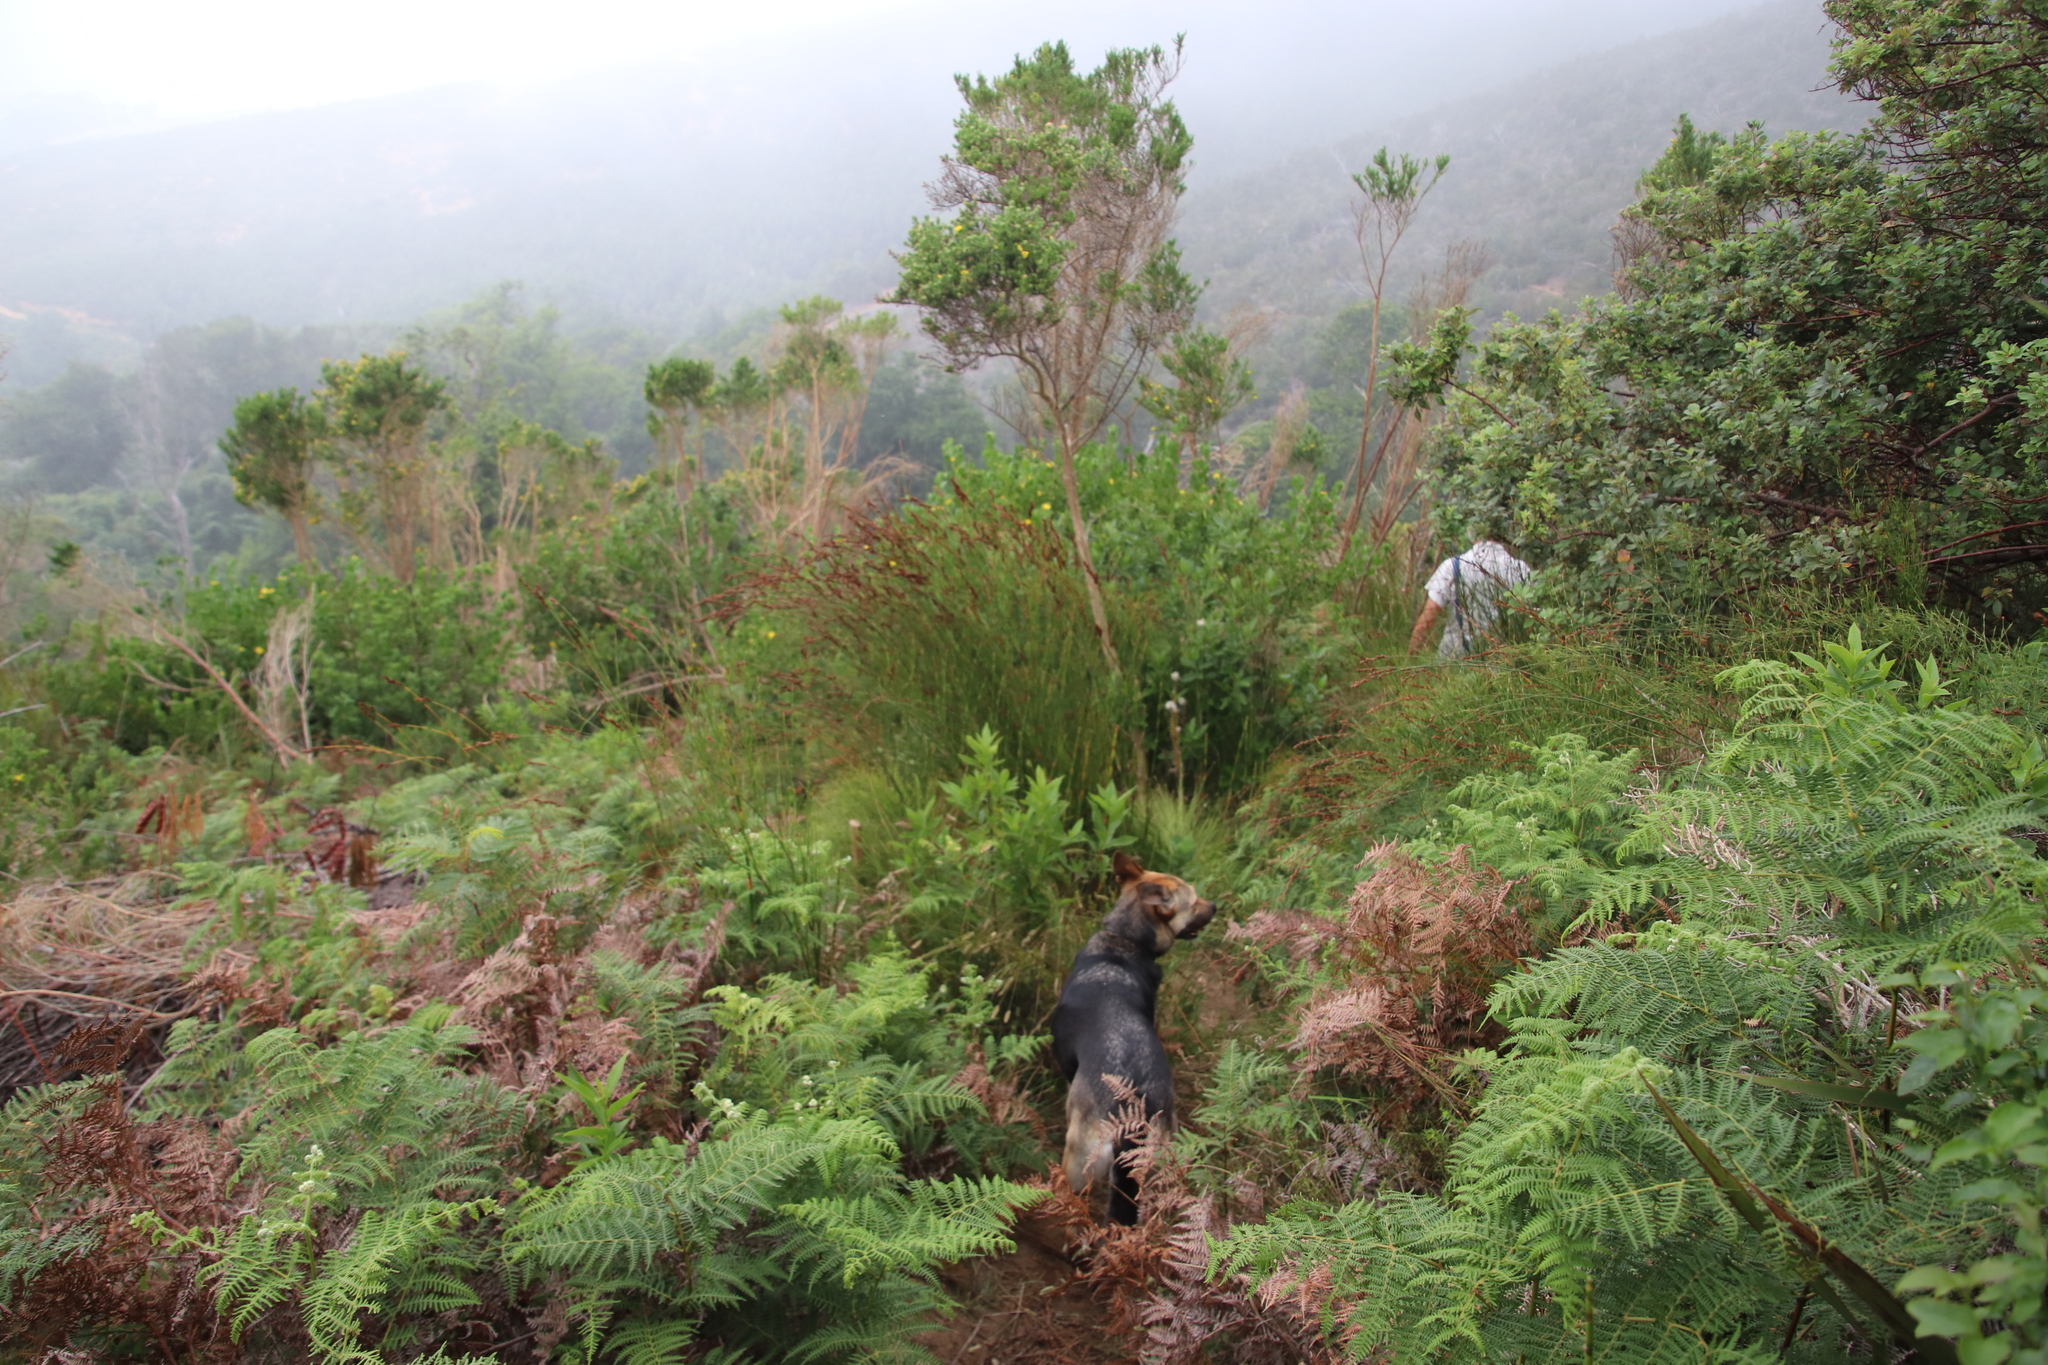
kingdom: Plantae
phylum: Tracheophyta
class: Polypodiopsida
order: Polypodiales
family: Dennstaedtiaceae
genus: Pteridium
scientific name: Pteridium aquilinum
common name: Bracken
